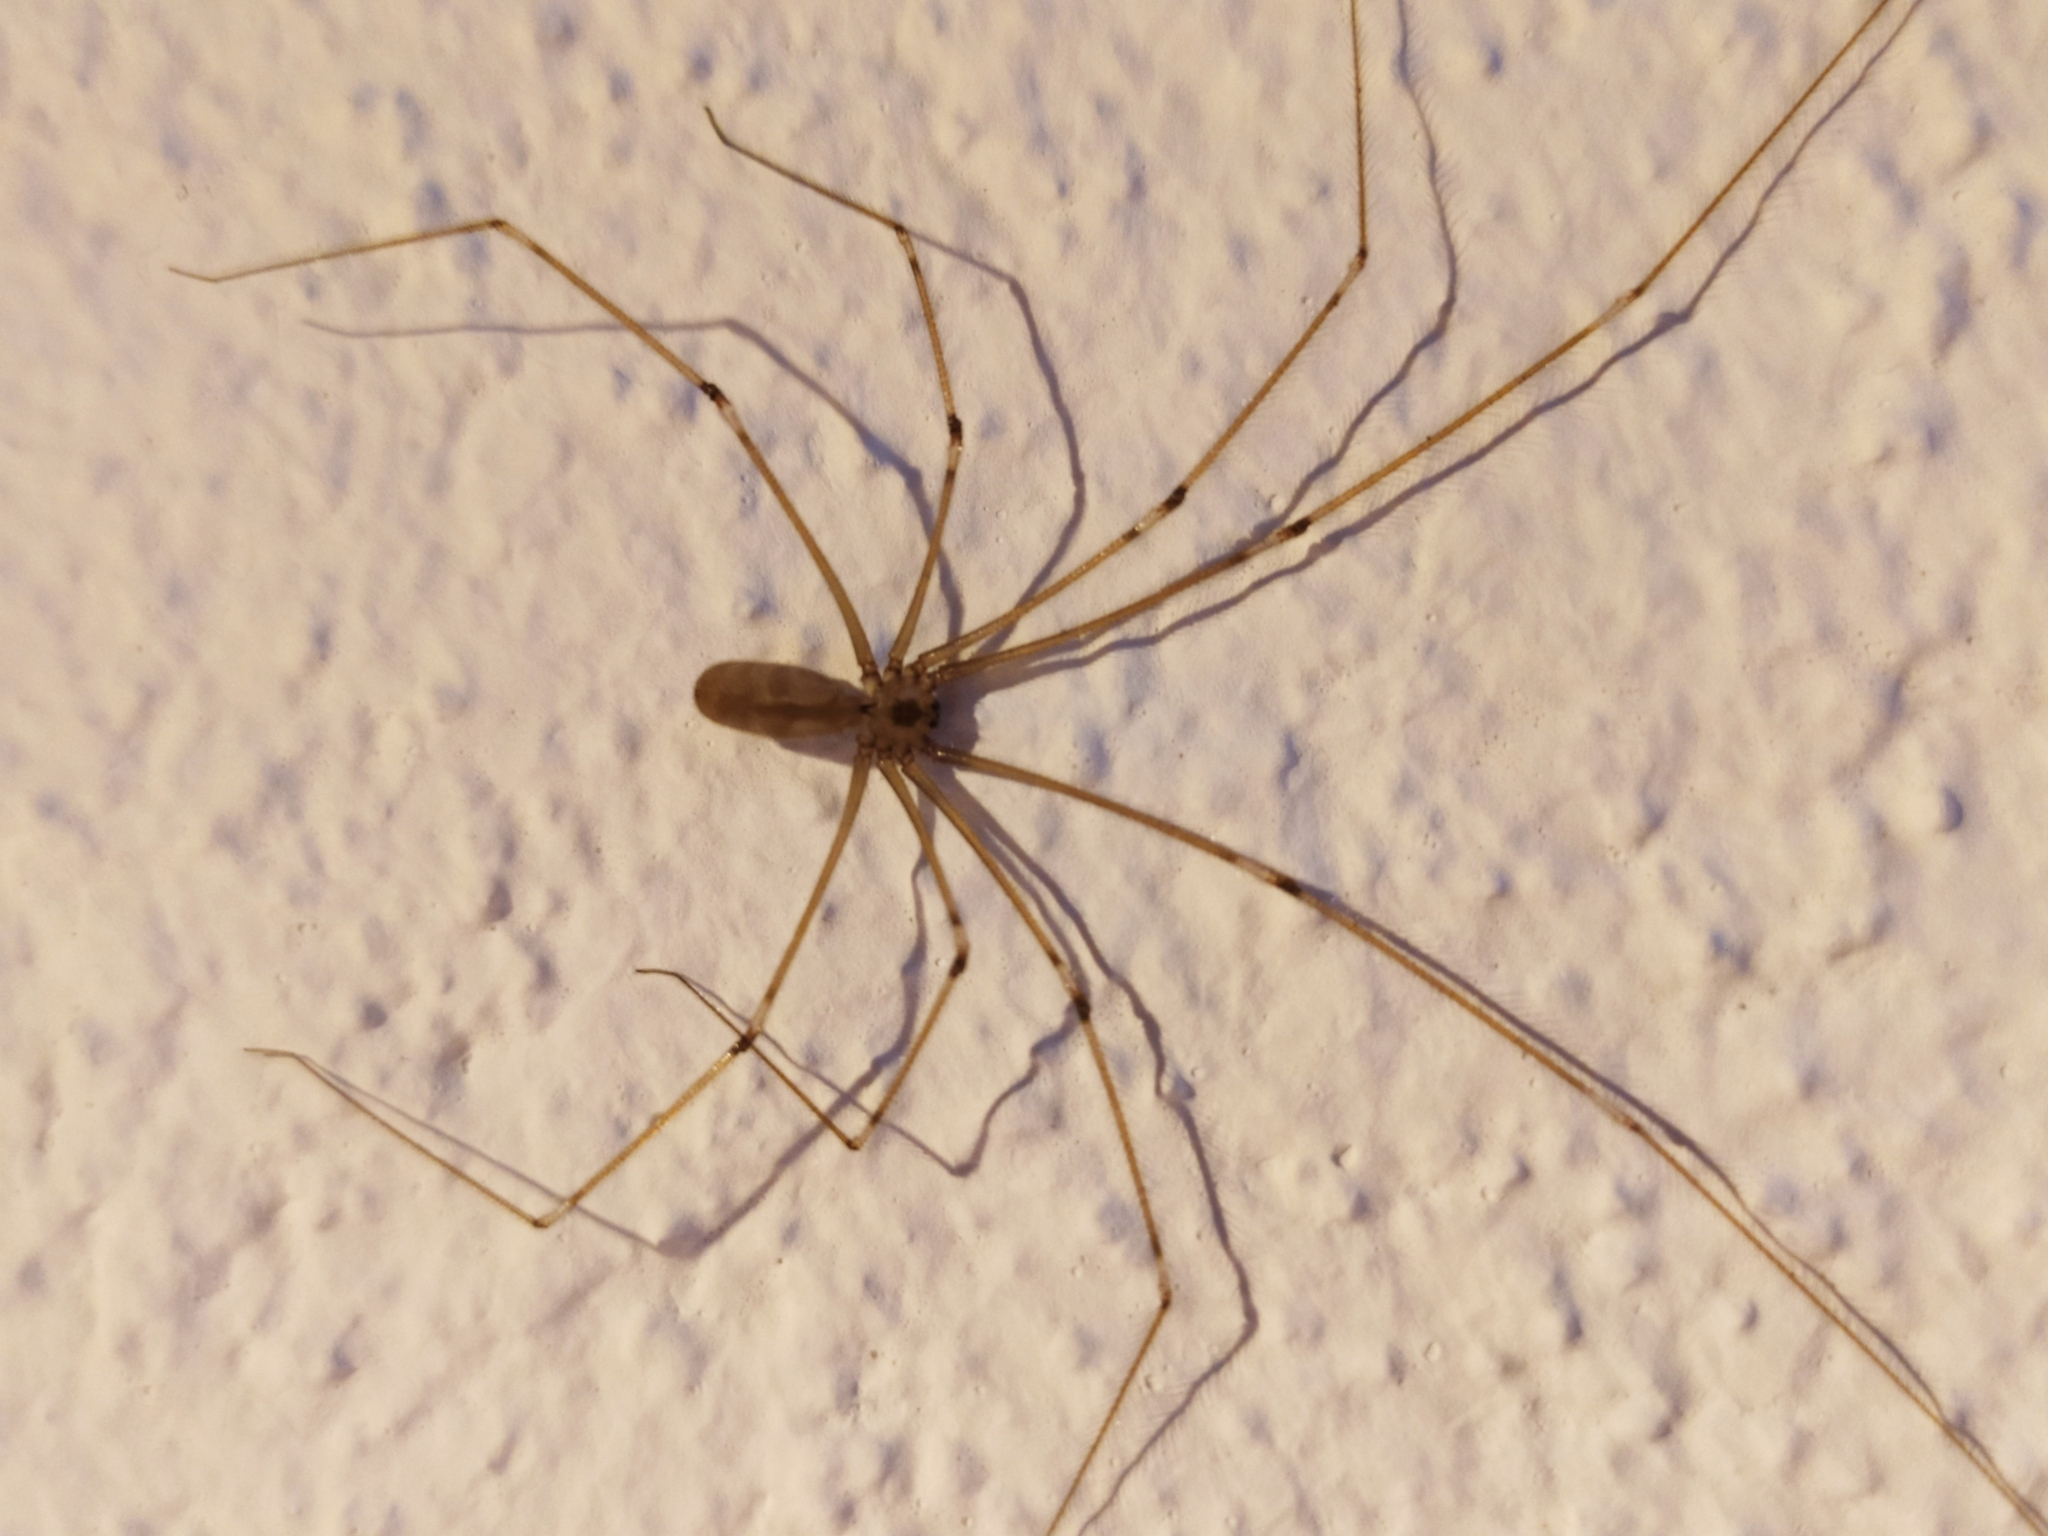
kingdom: Animalia
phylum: Arthropoda
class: Arachnida
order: Araneae
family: Pholcidae
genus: Pholcus
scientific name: Pholcus phalangioides
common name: Longbodied cellar spider
